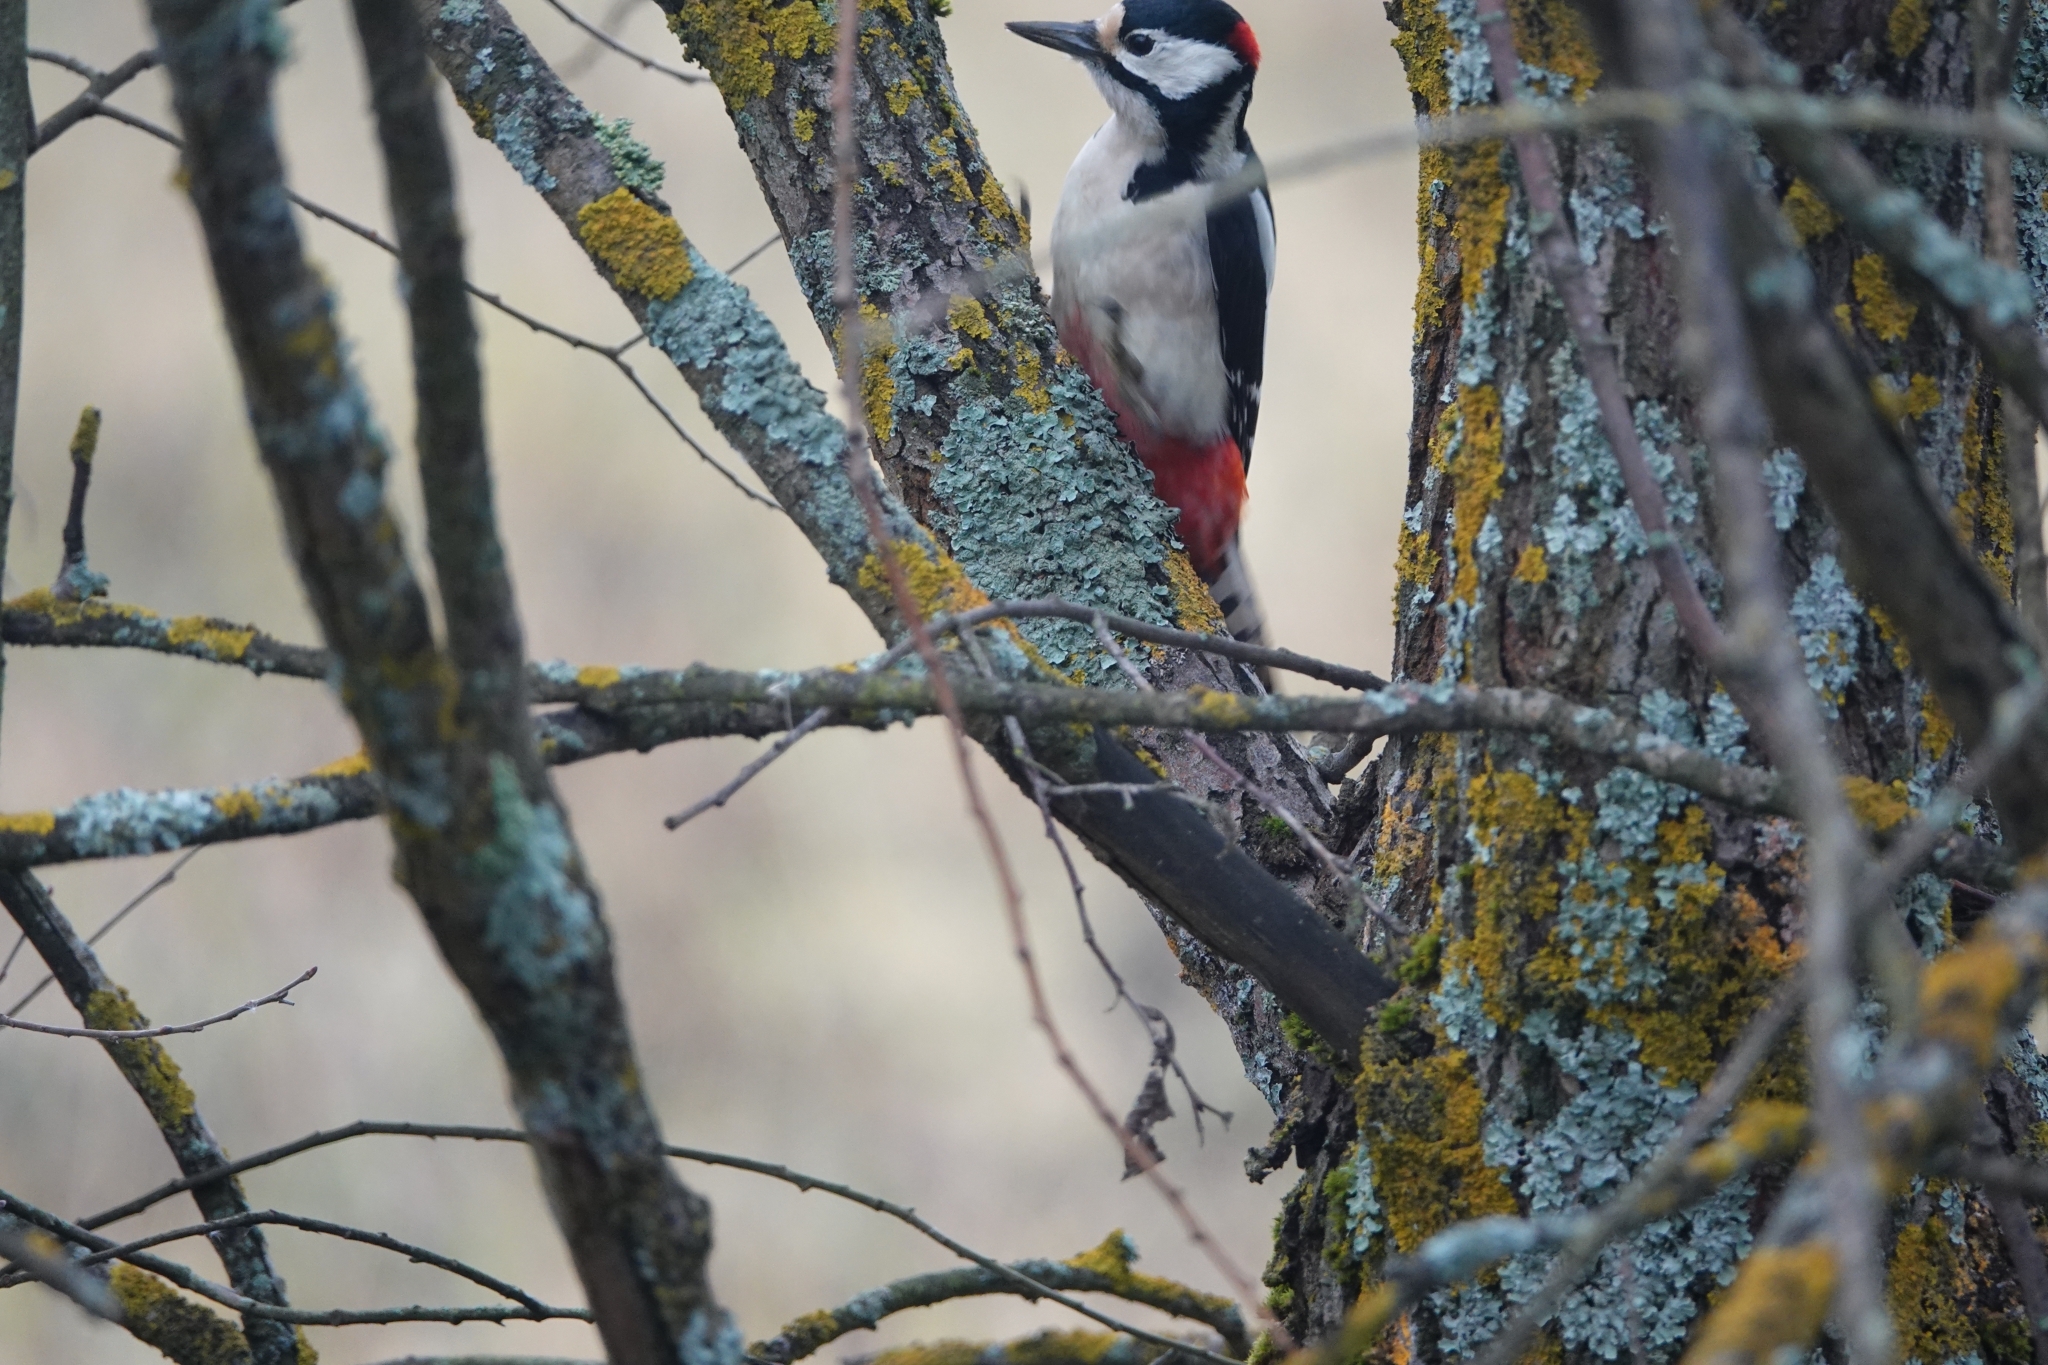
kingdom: Animalia
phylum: Chordata
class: Aves
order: Piciformes
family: Picidae
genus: Dendrocopos
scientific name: Dendrocopos major
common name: Great spotted woodpecker
